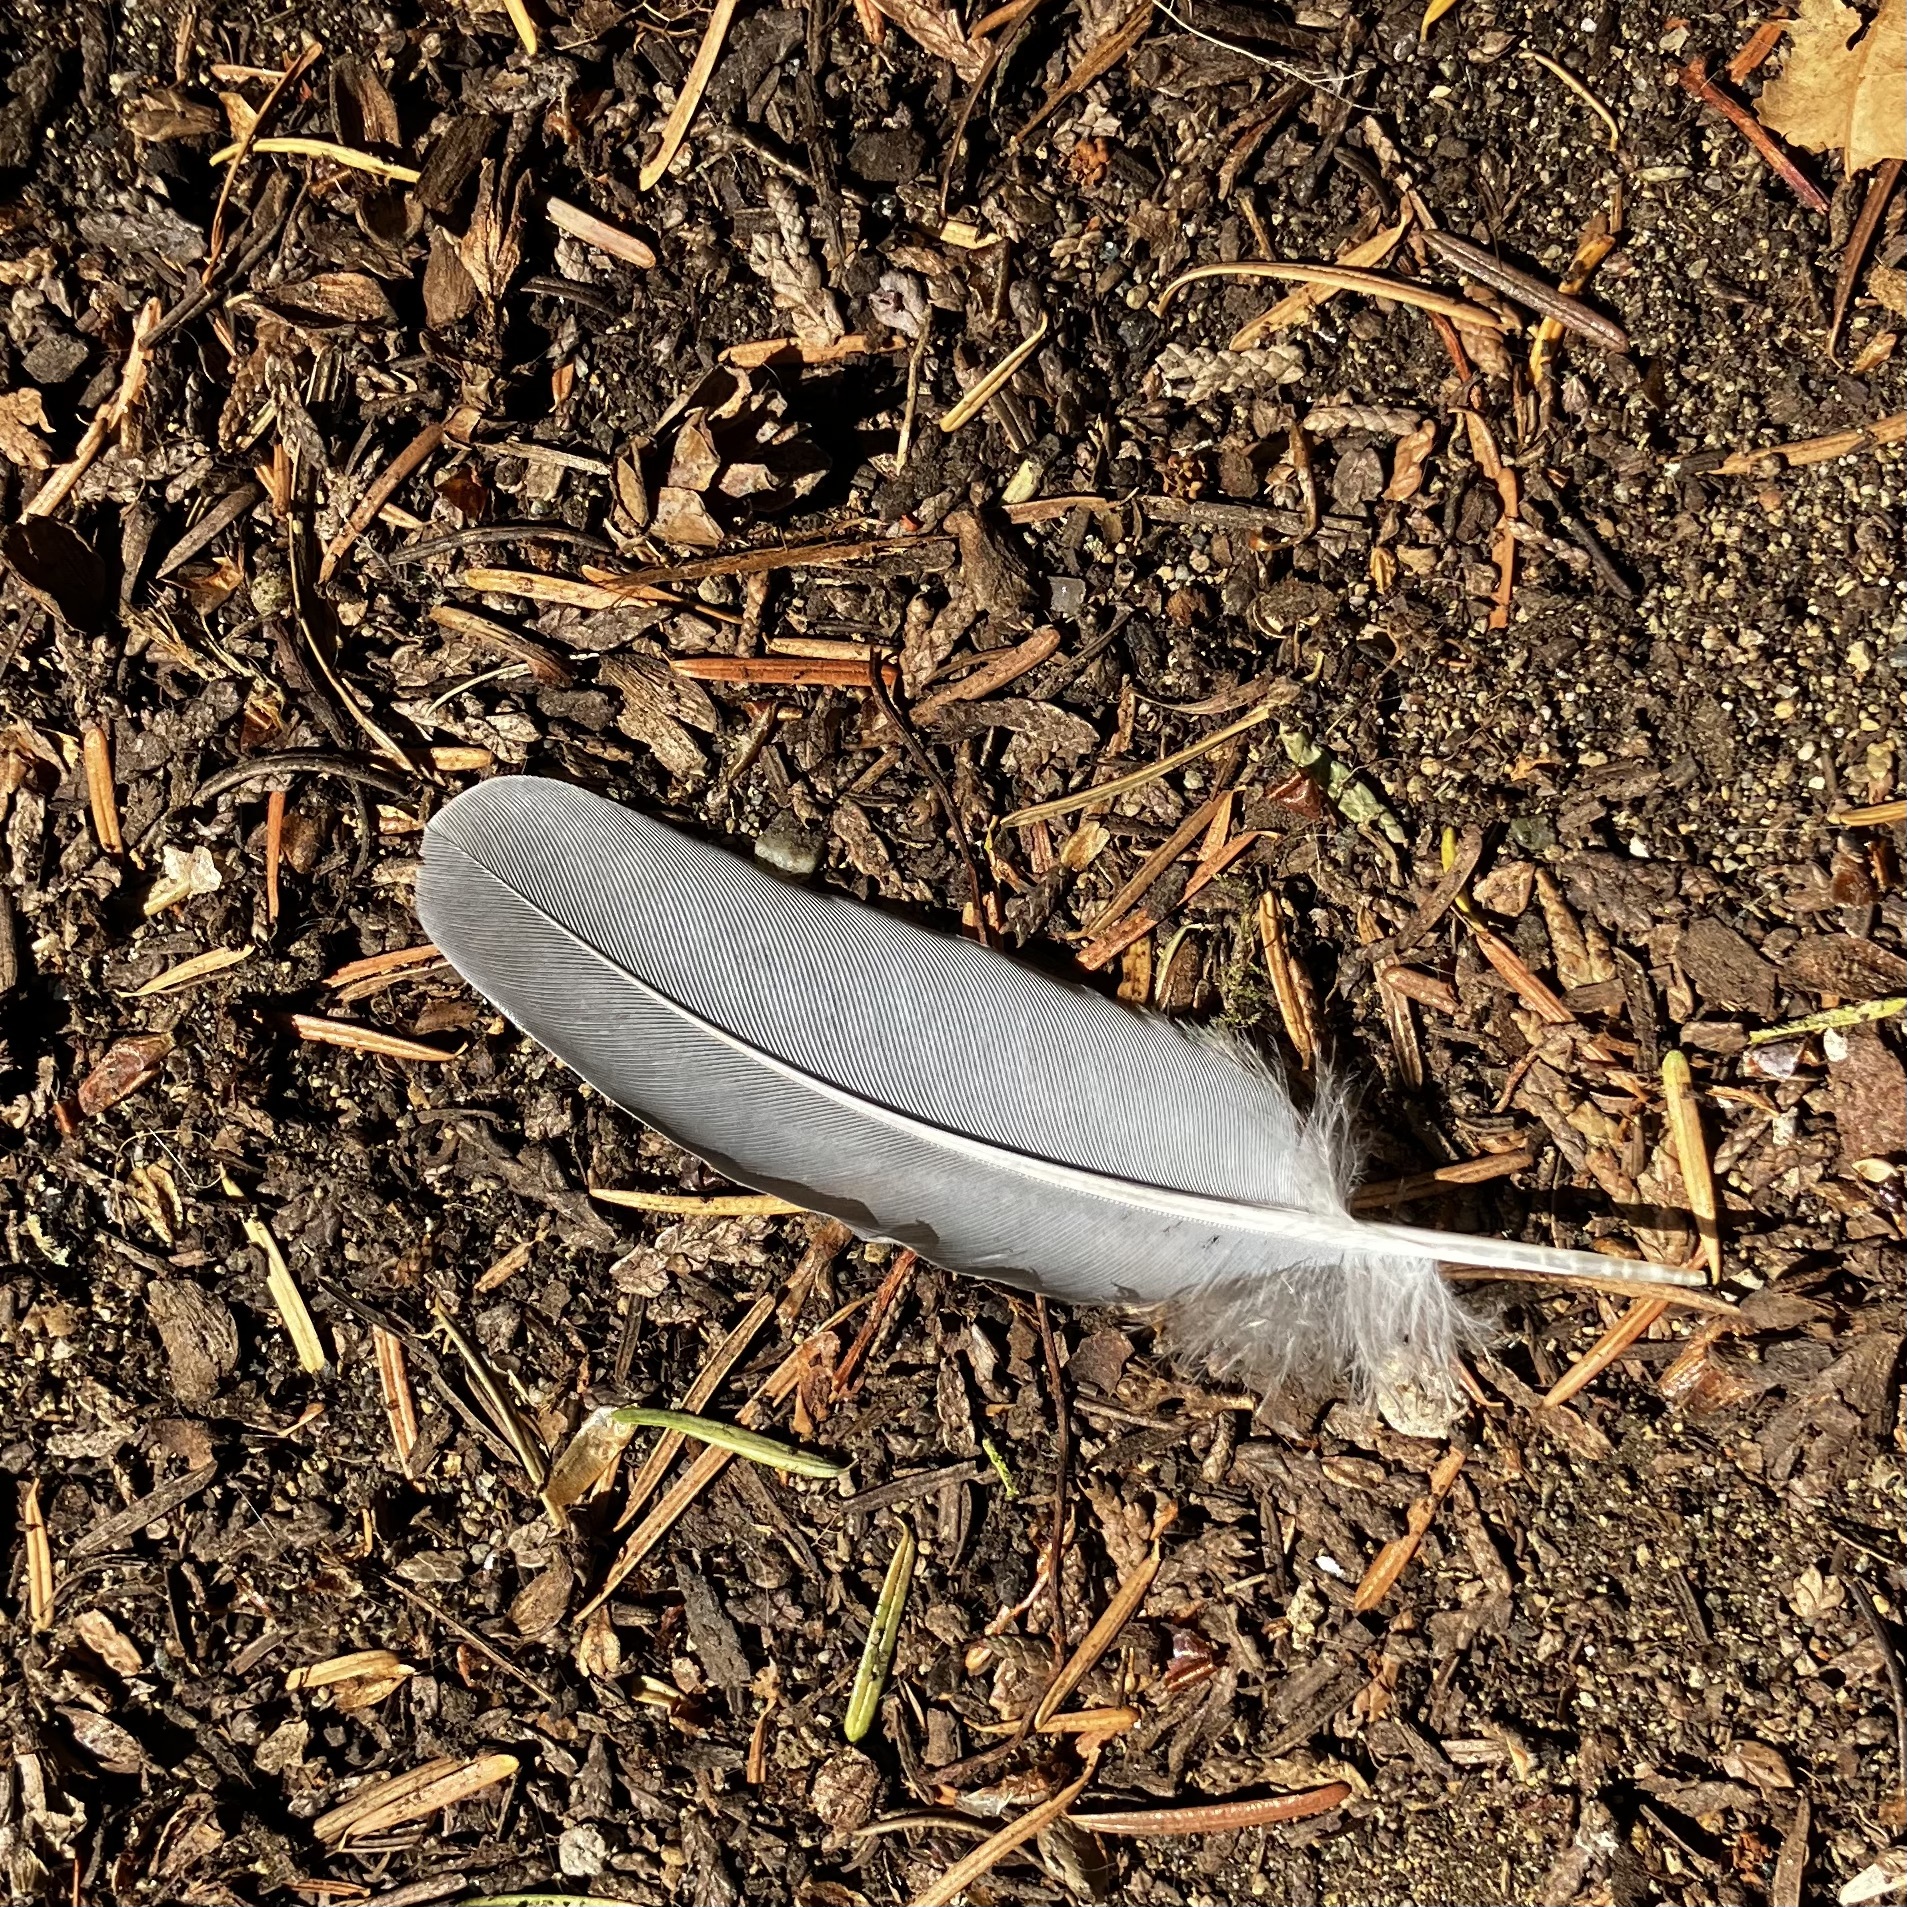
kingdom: Animalia
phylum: Chordata
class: Aves
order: Columbiformes
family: Columbidae
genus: Zenaida
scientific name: Zenaida macroura
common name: Mourning dove
